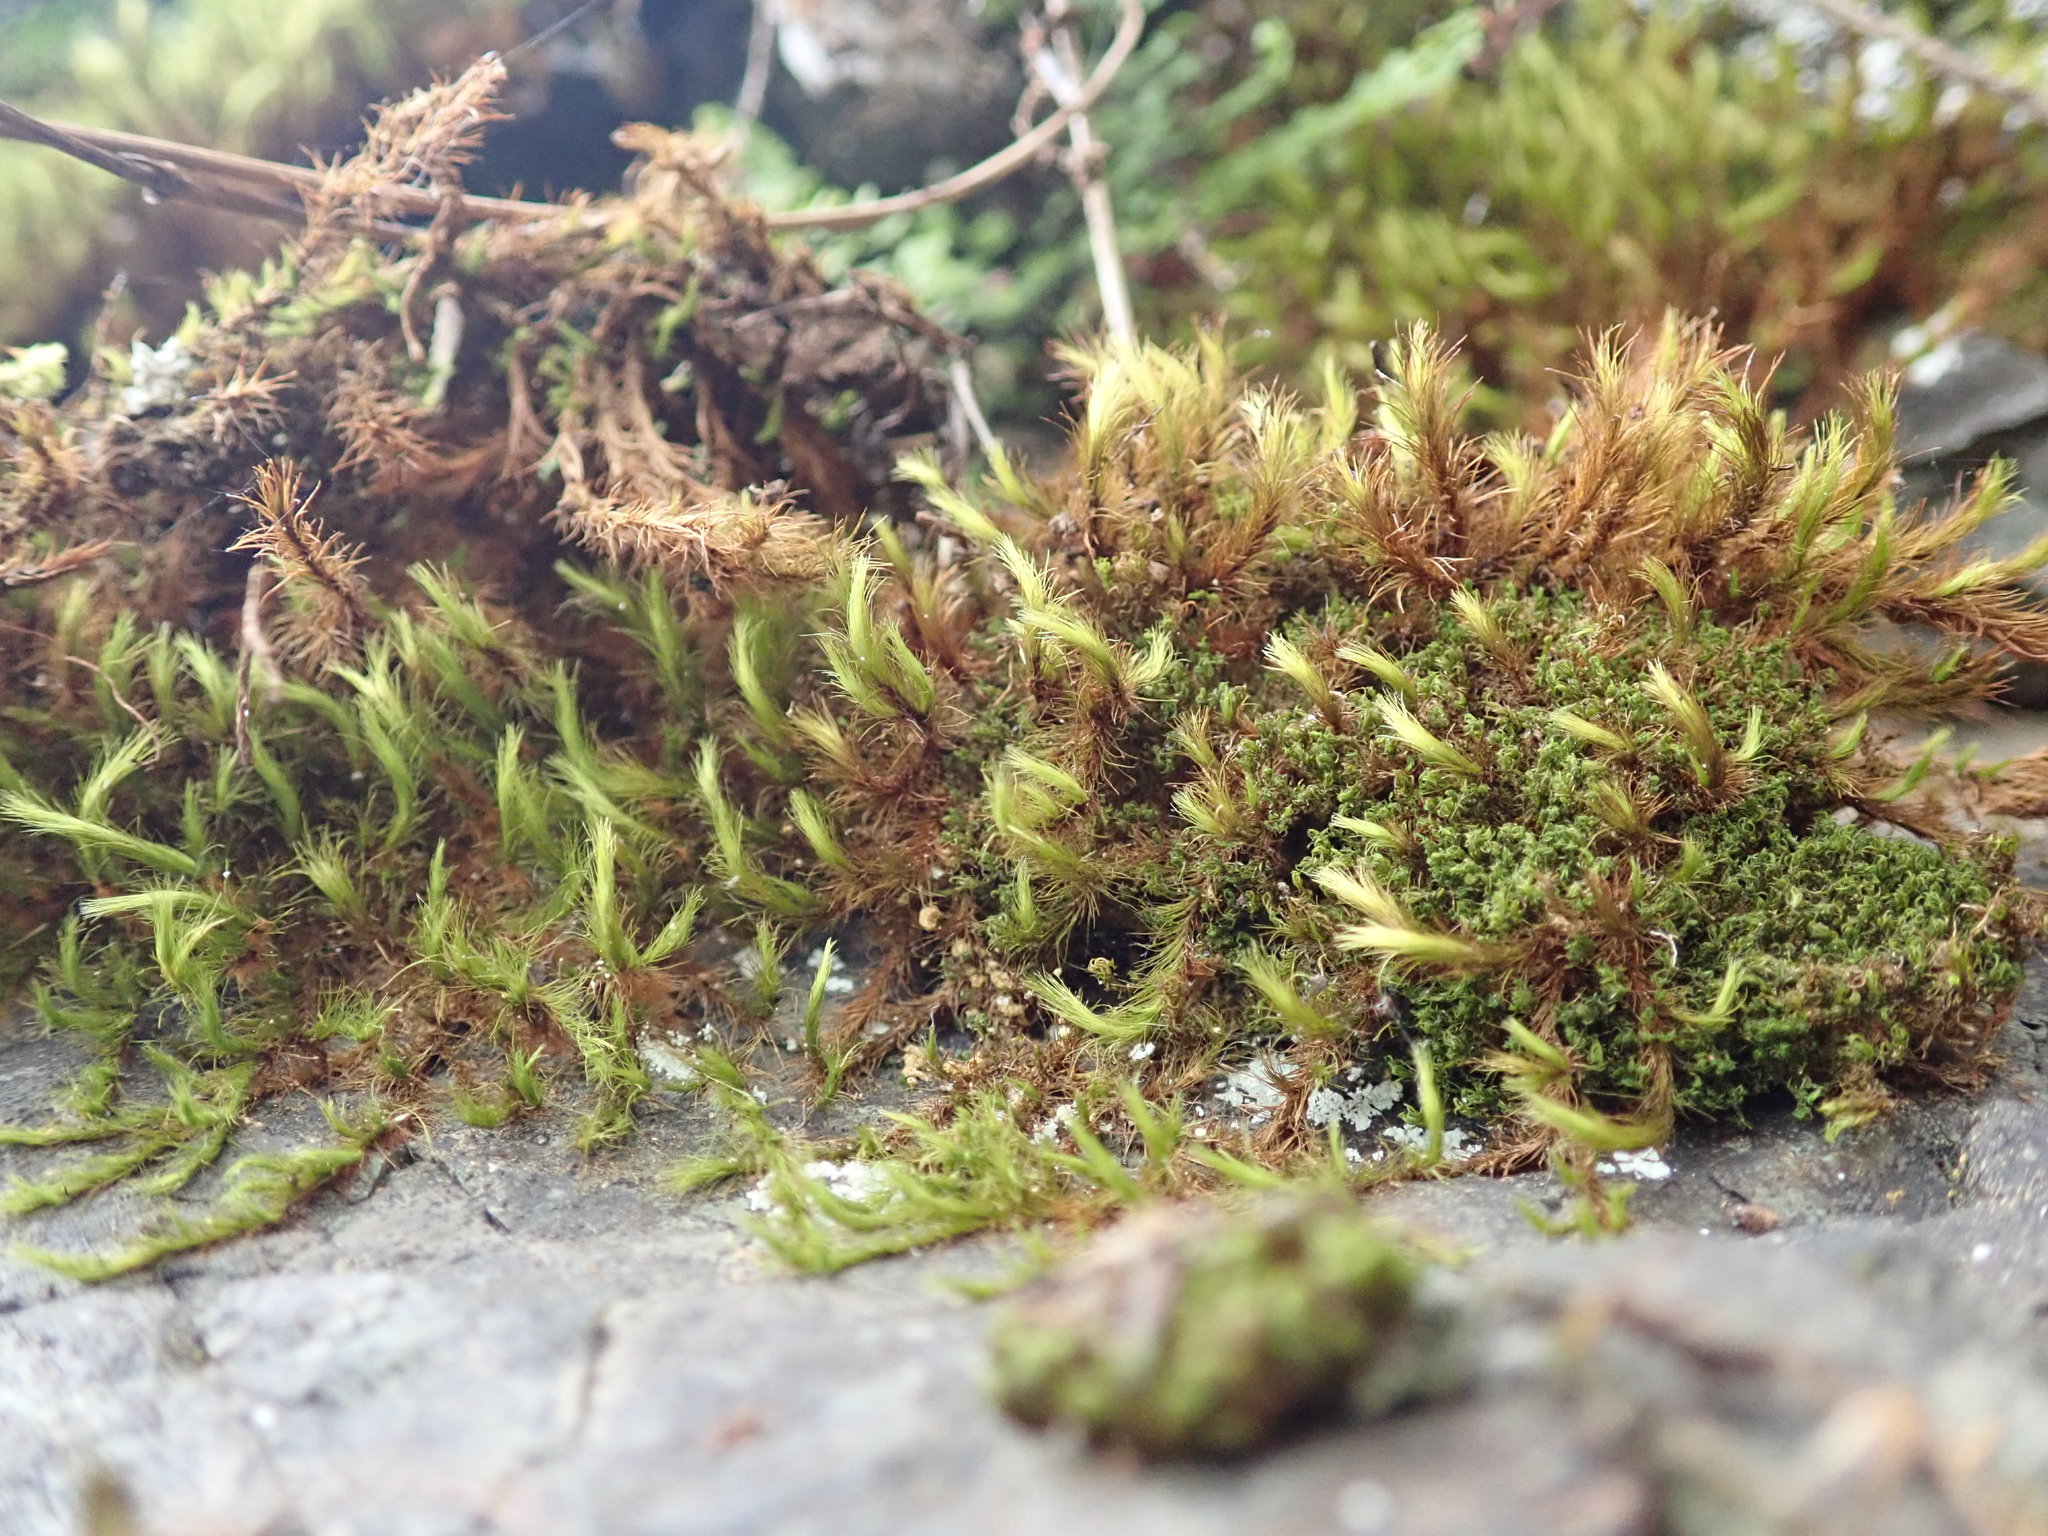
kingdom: Plantae
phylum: Bryophyta
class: Bryopsida
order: Bartramiales
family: Bartramiaceae
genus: Anacolia
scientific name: Anacolia menziesii
